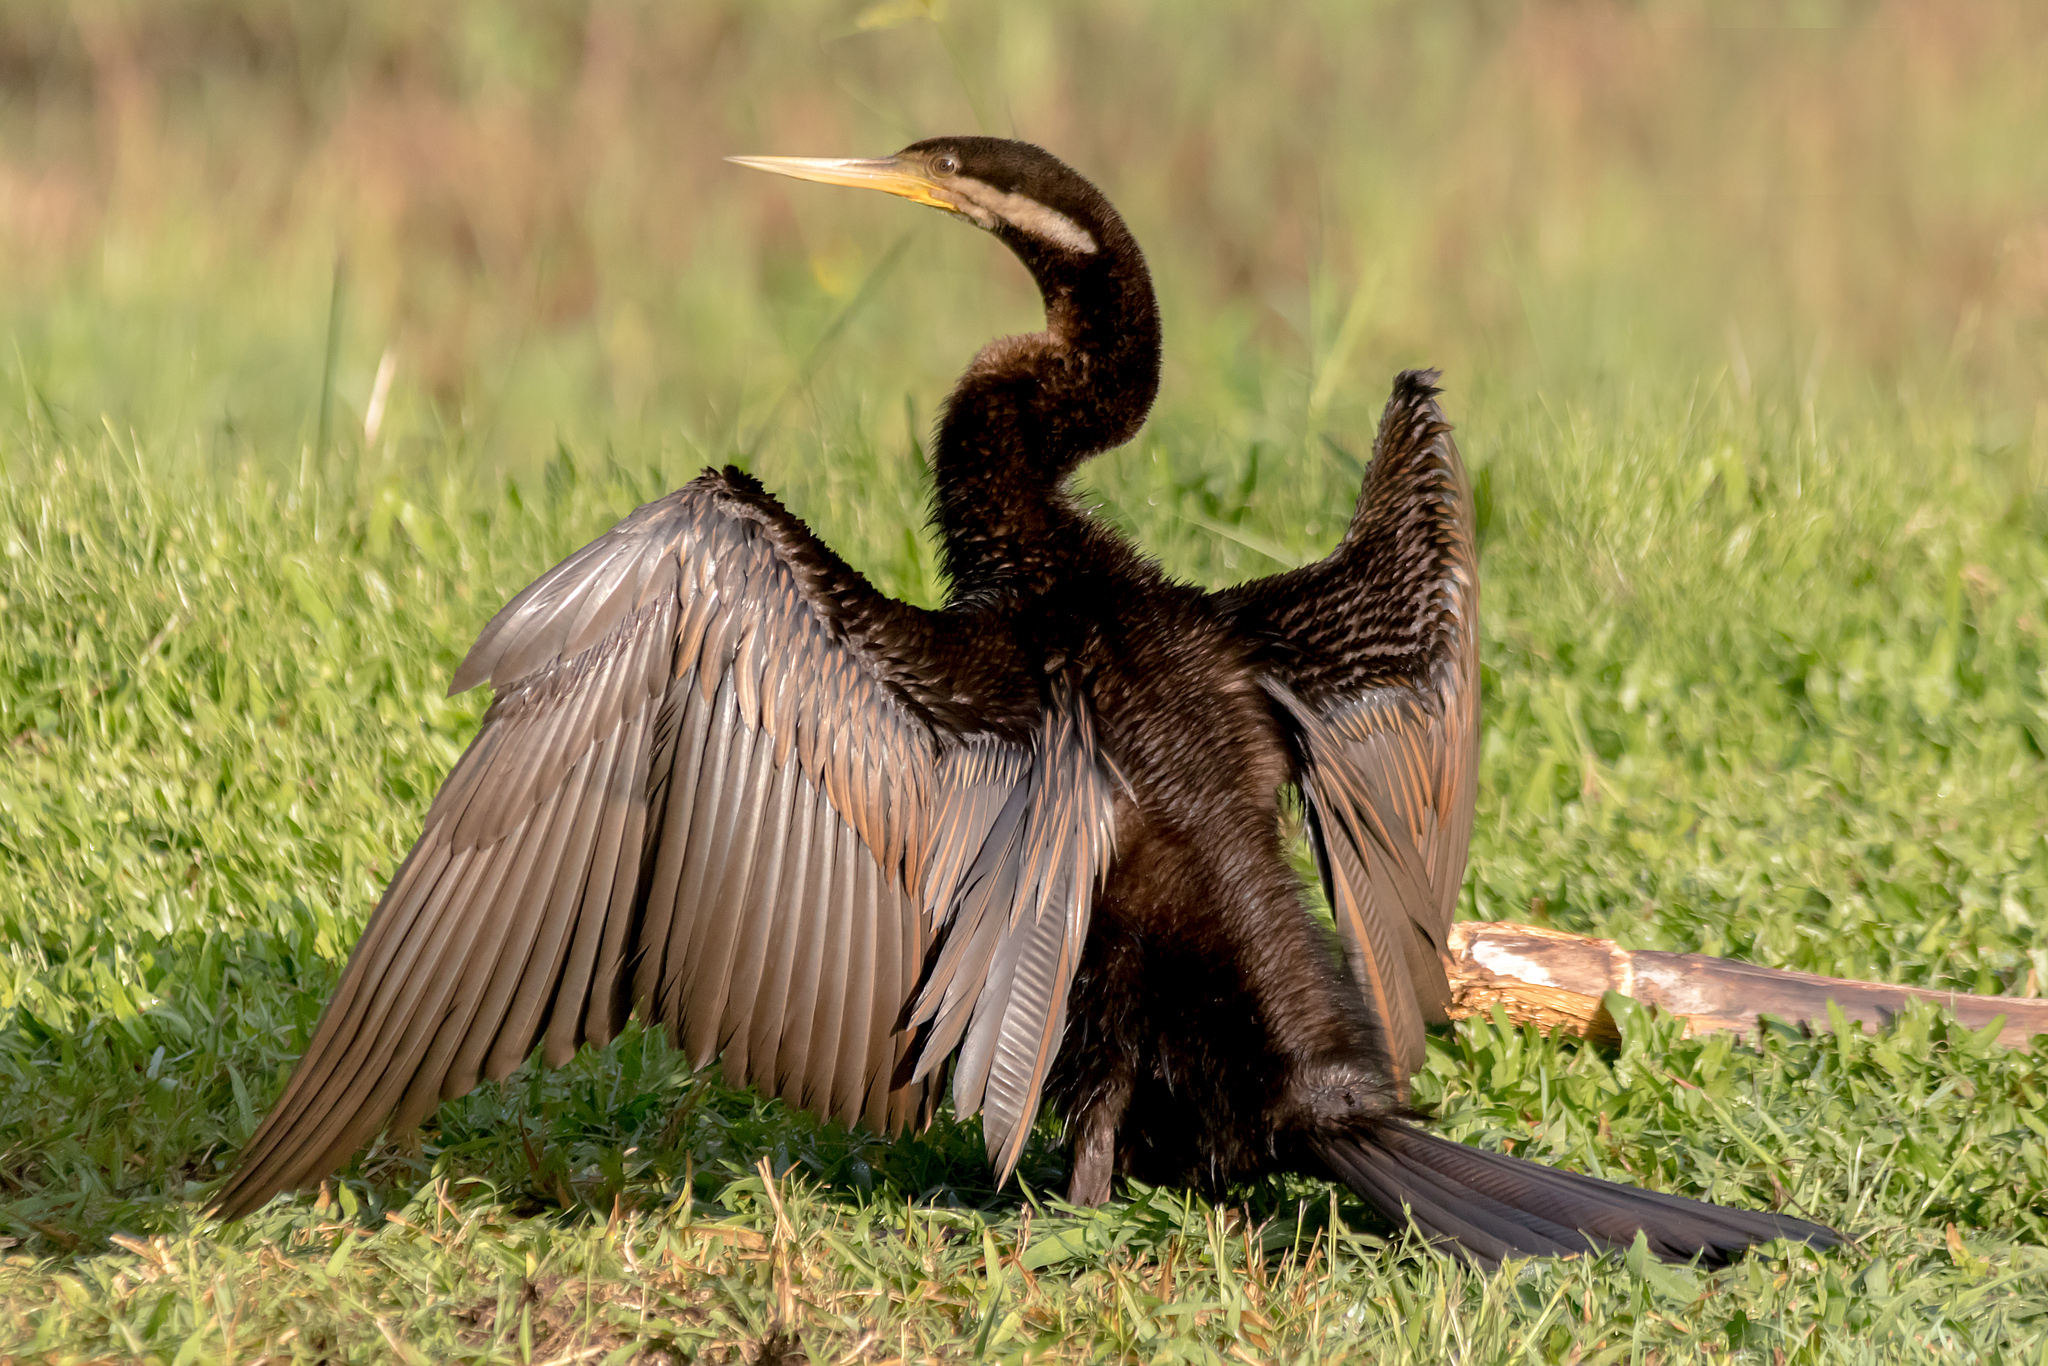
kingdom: Animalia
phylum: Chordata
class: Aves
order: Suliformes
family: Anhingidae
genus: Anhinga
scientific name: Anhinga novaehollandiae
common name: Australasian darter
